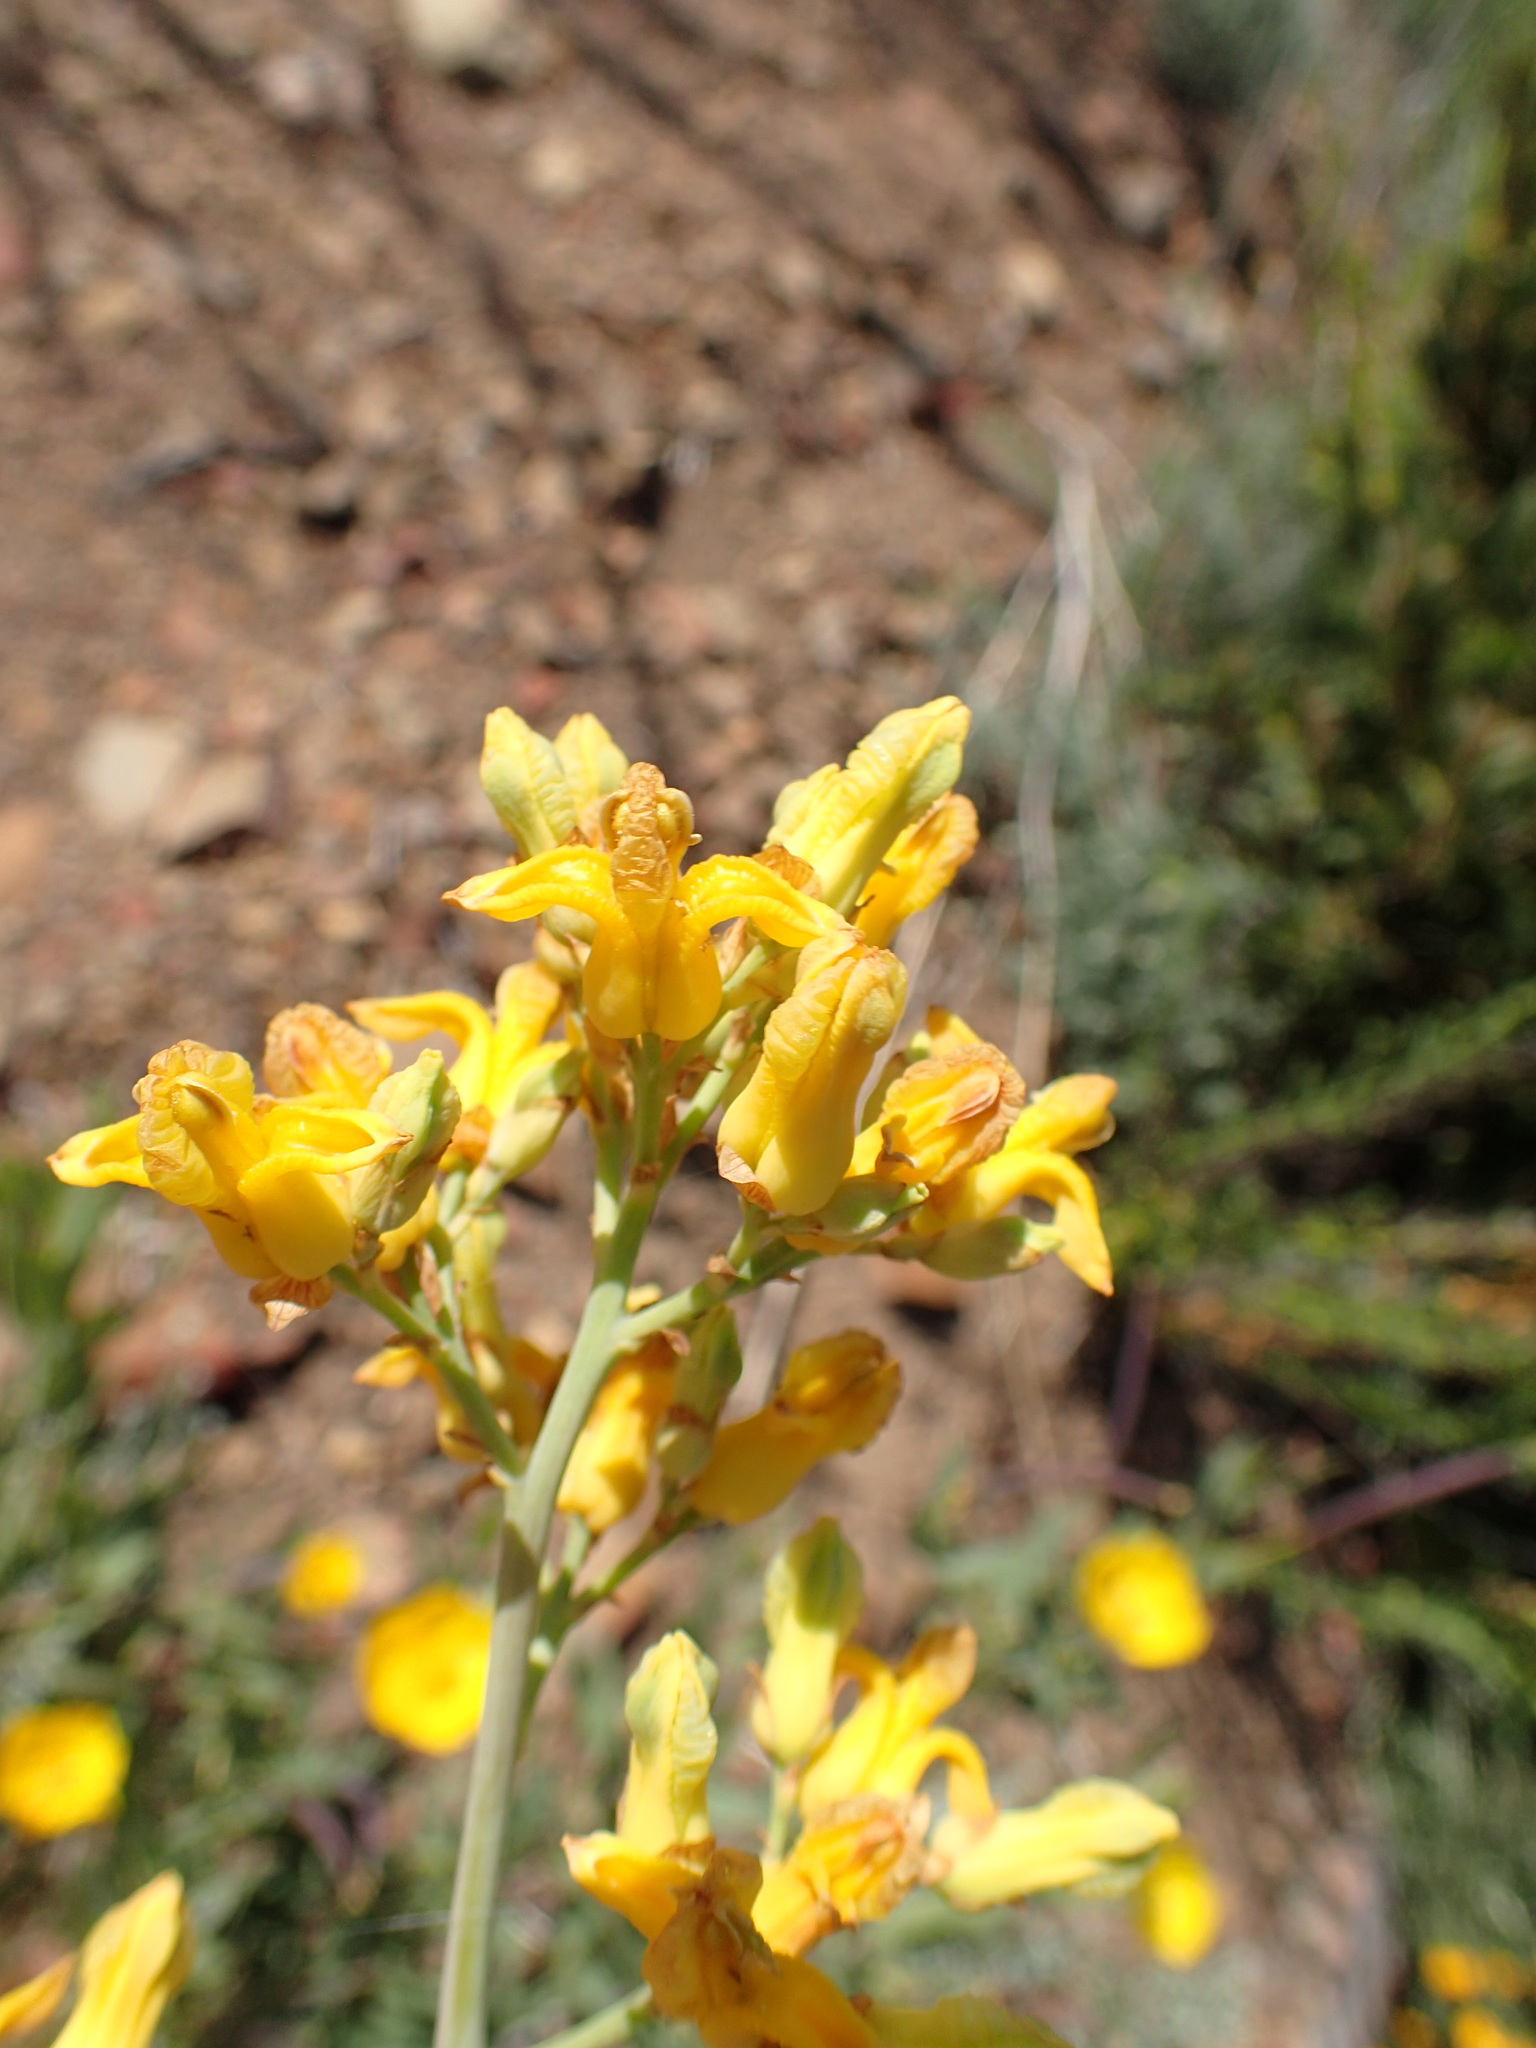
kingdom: Plantae
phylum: Tracheophyta
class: Magnoliopsida
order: Ranunculales
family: Papaveraceae
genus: Ehrendorferia
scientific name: Ehrendorferia chrysantha
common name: Golden eardrops
